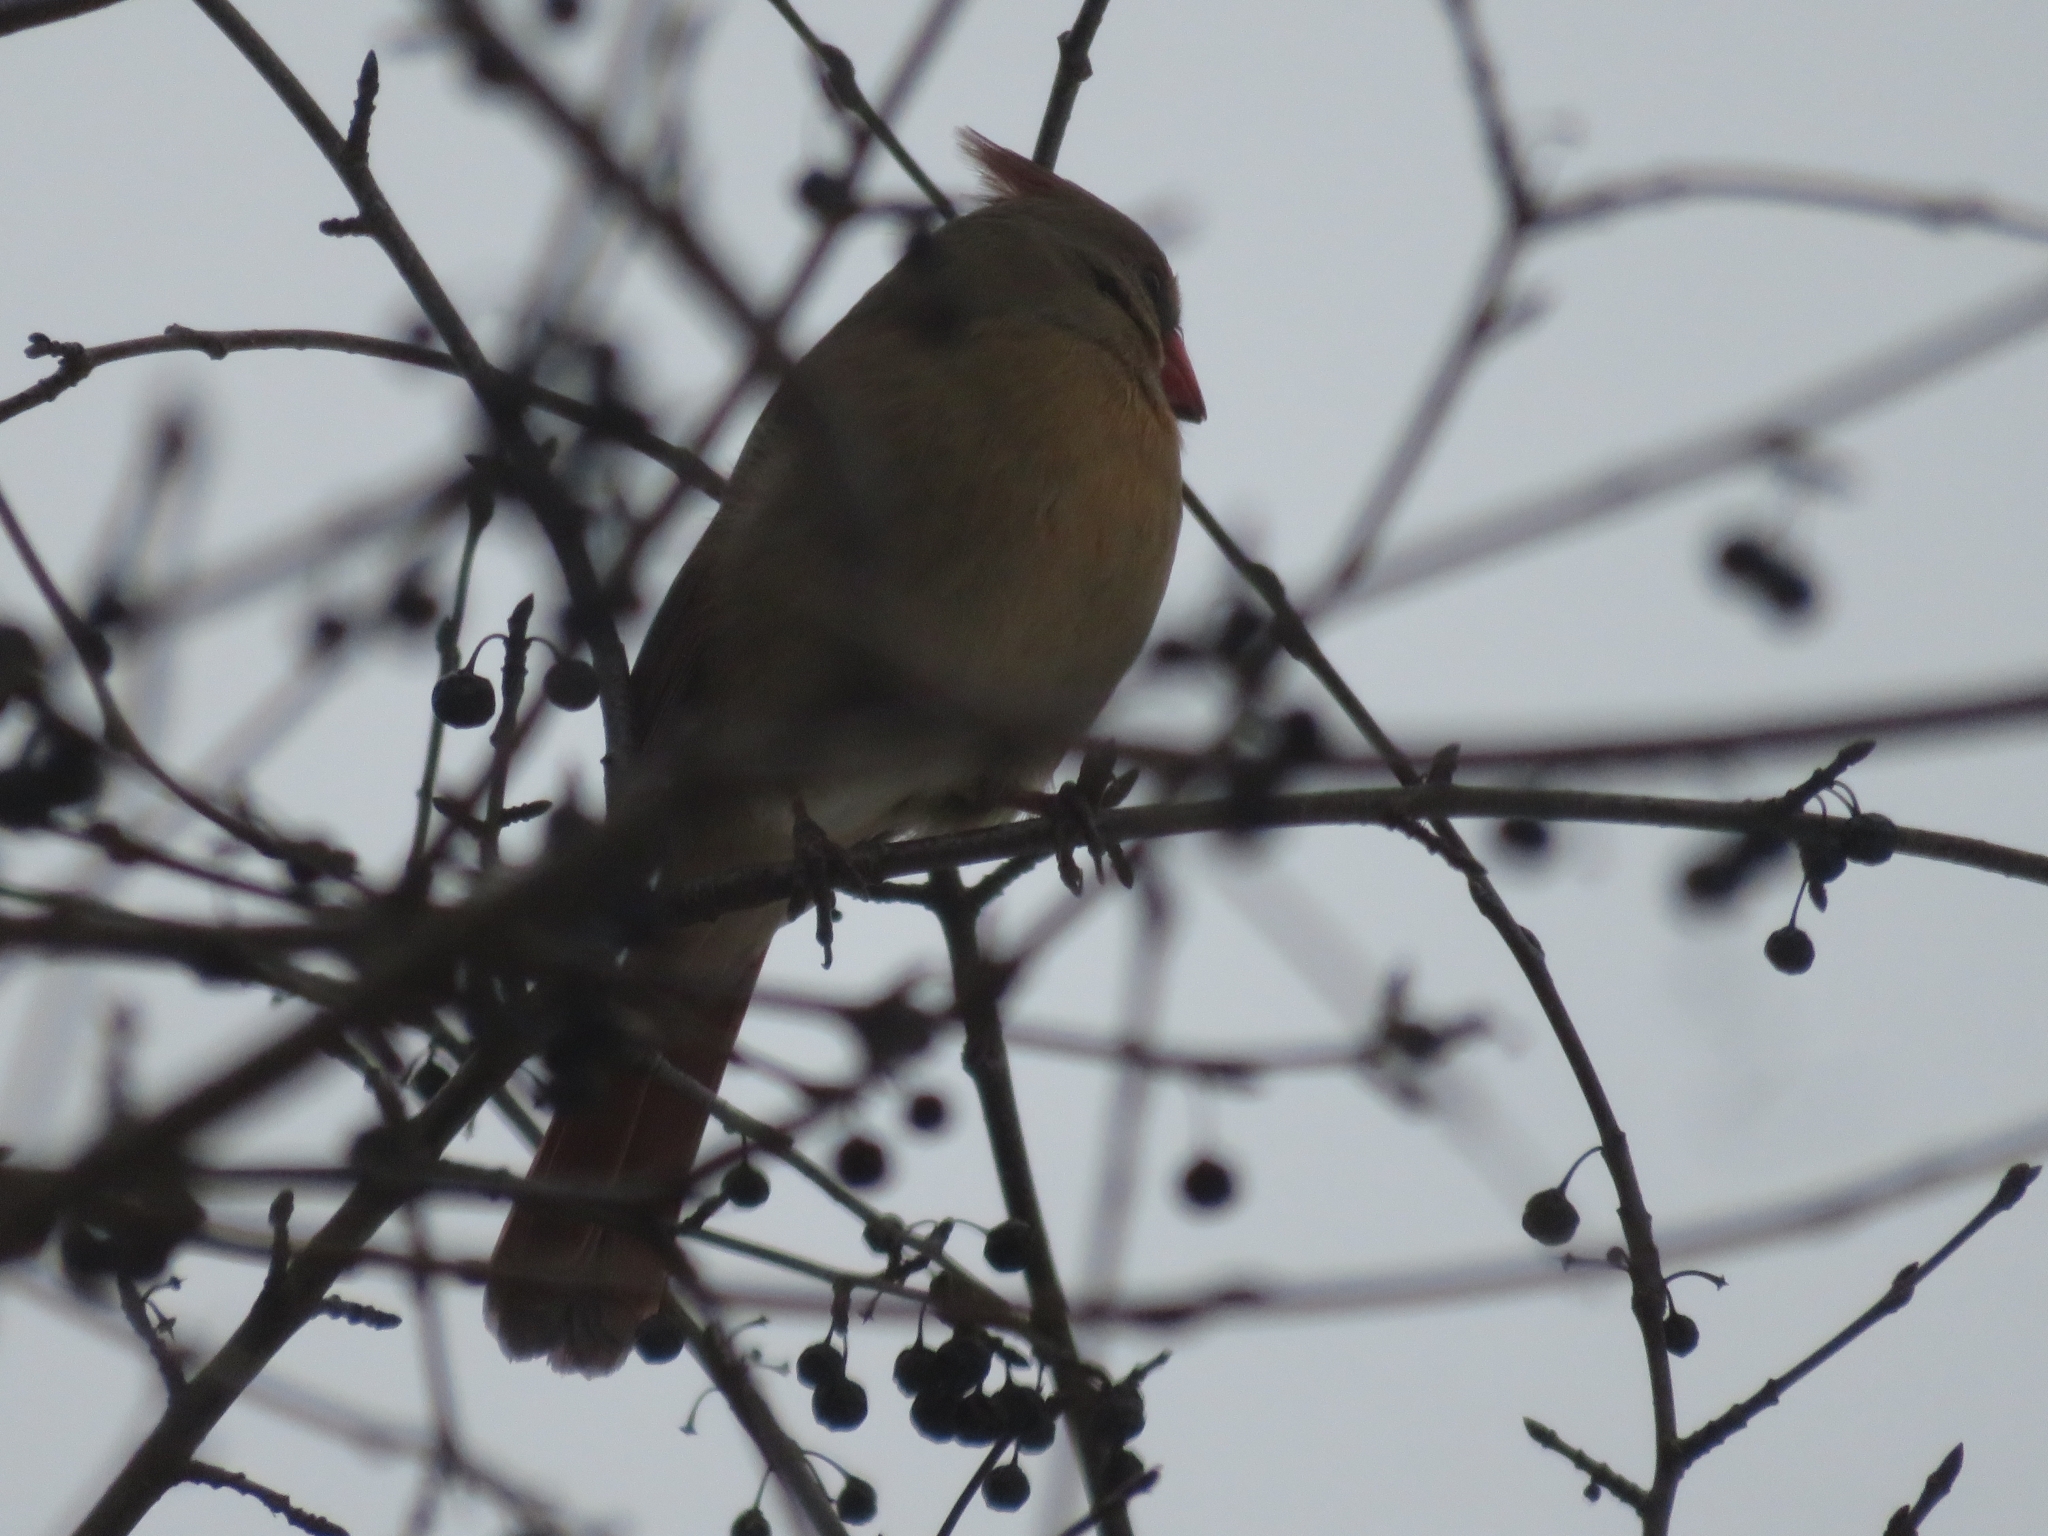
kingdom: Animalia
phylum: Chordata
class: Aves
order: Passeriformes
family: Cardinalidae
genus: Cardinalis
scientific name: Cardinalis cardinalis
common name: Northern cardinal
